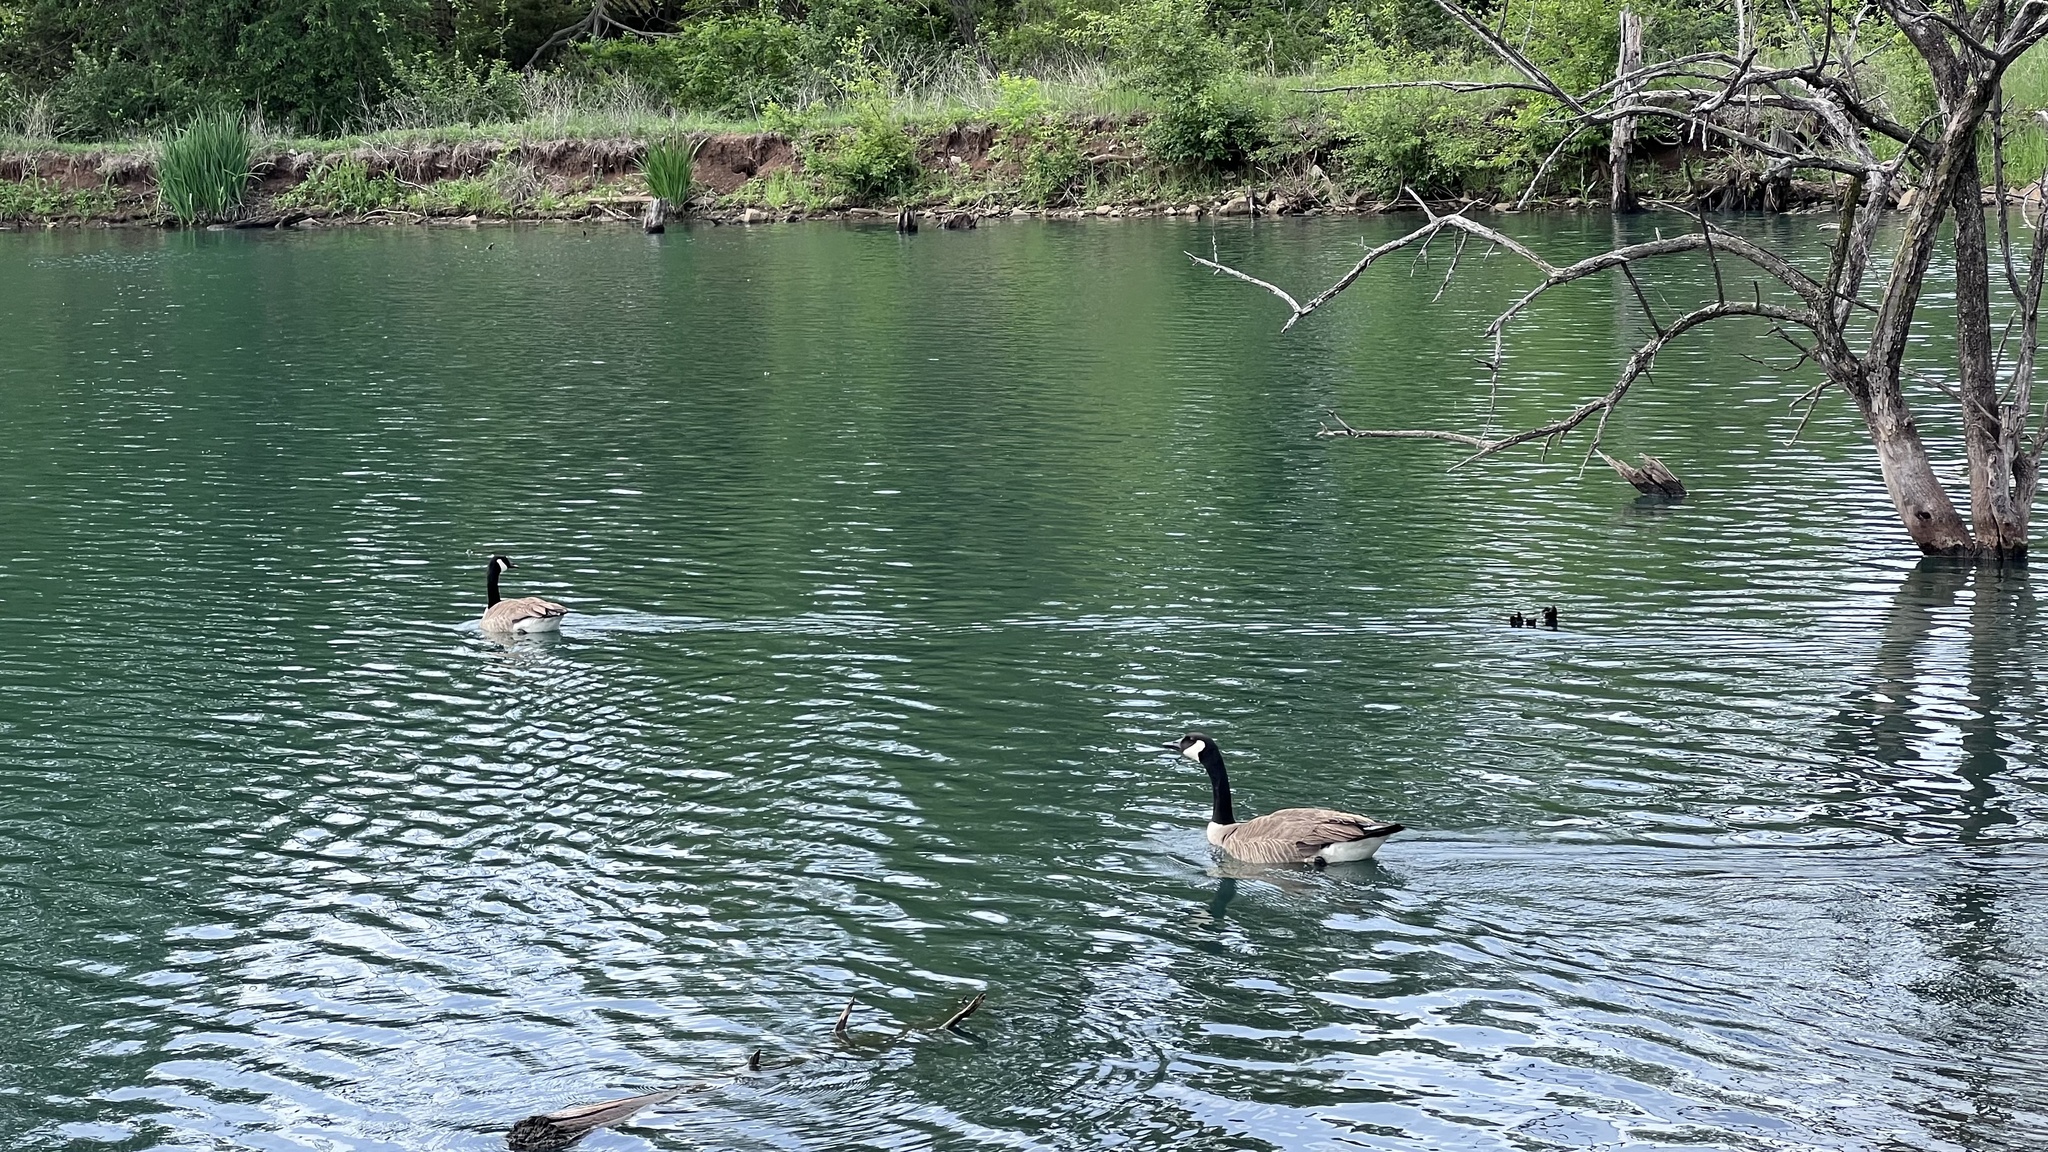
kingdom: Animalia
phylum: Chordata
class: Aves
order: Anseriformes
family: Anatidae
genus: Branta
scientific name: Branta canadensis
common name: Canada goose
